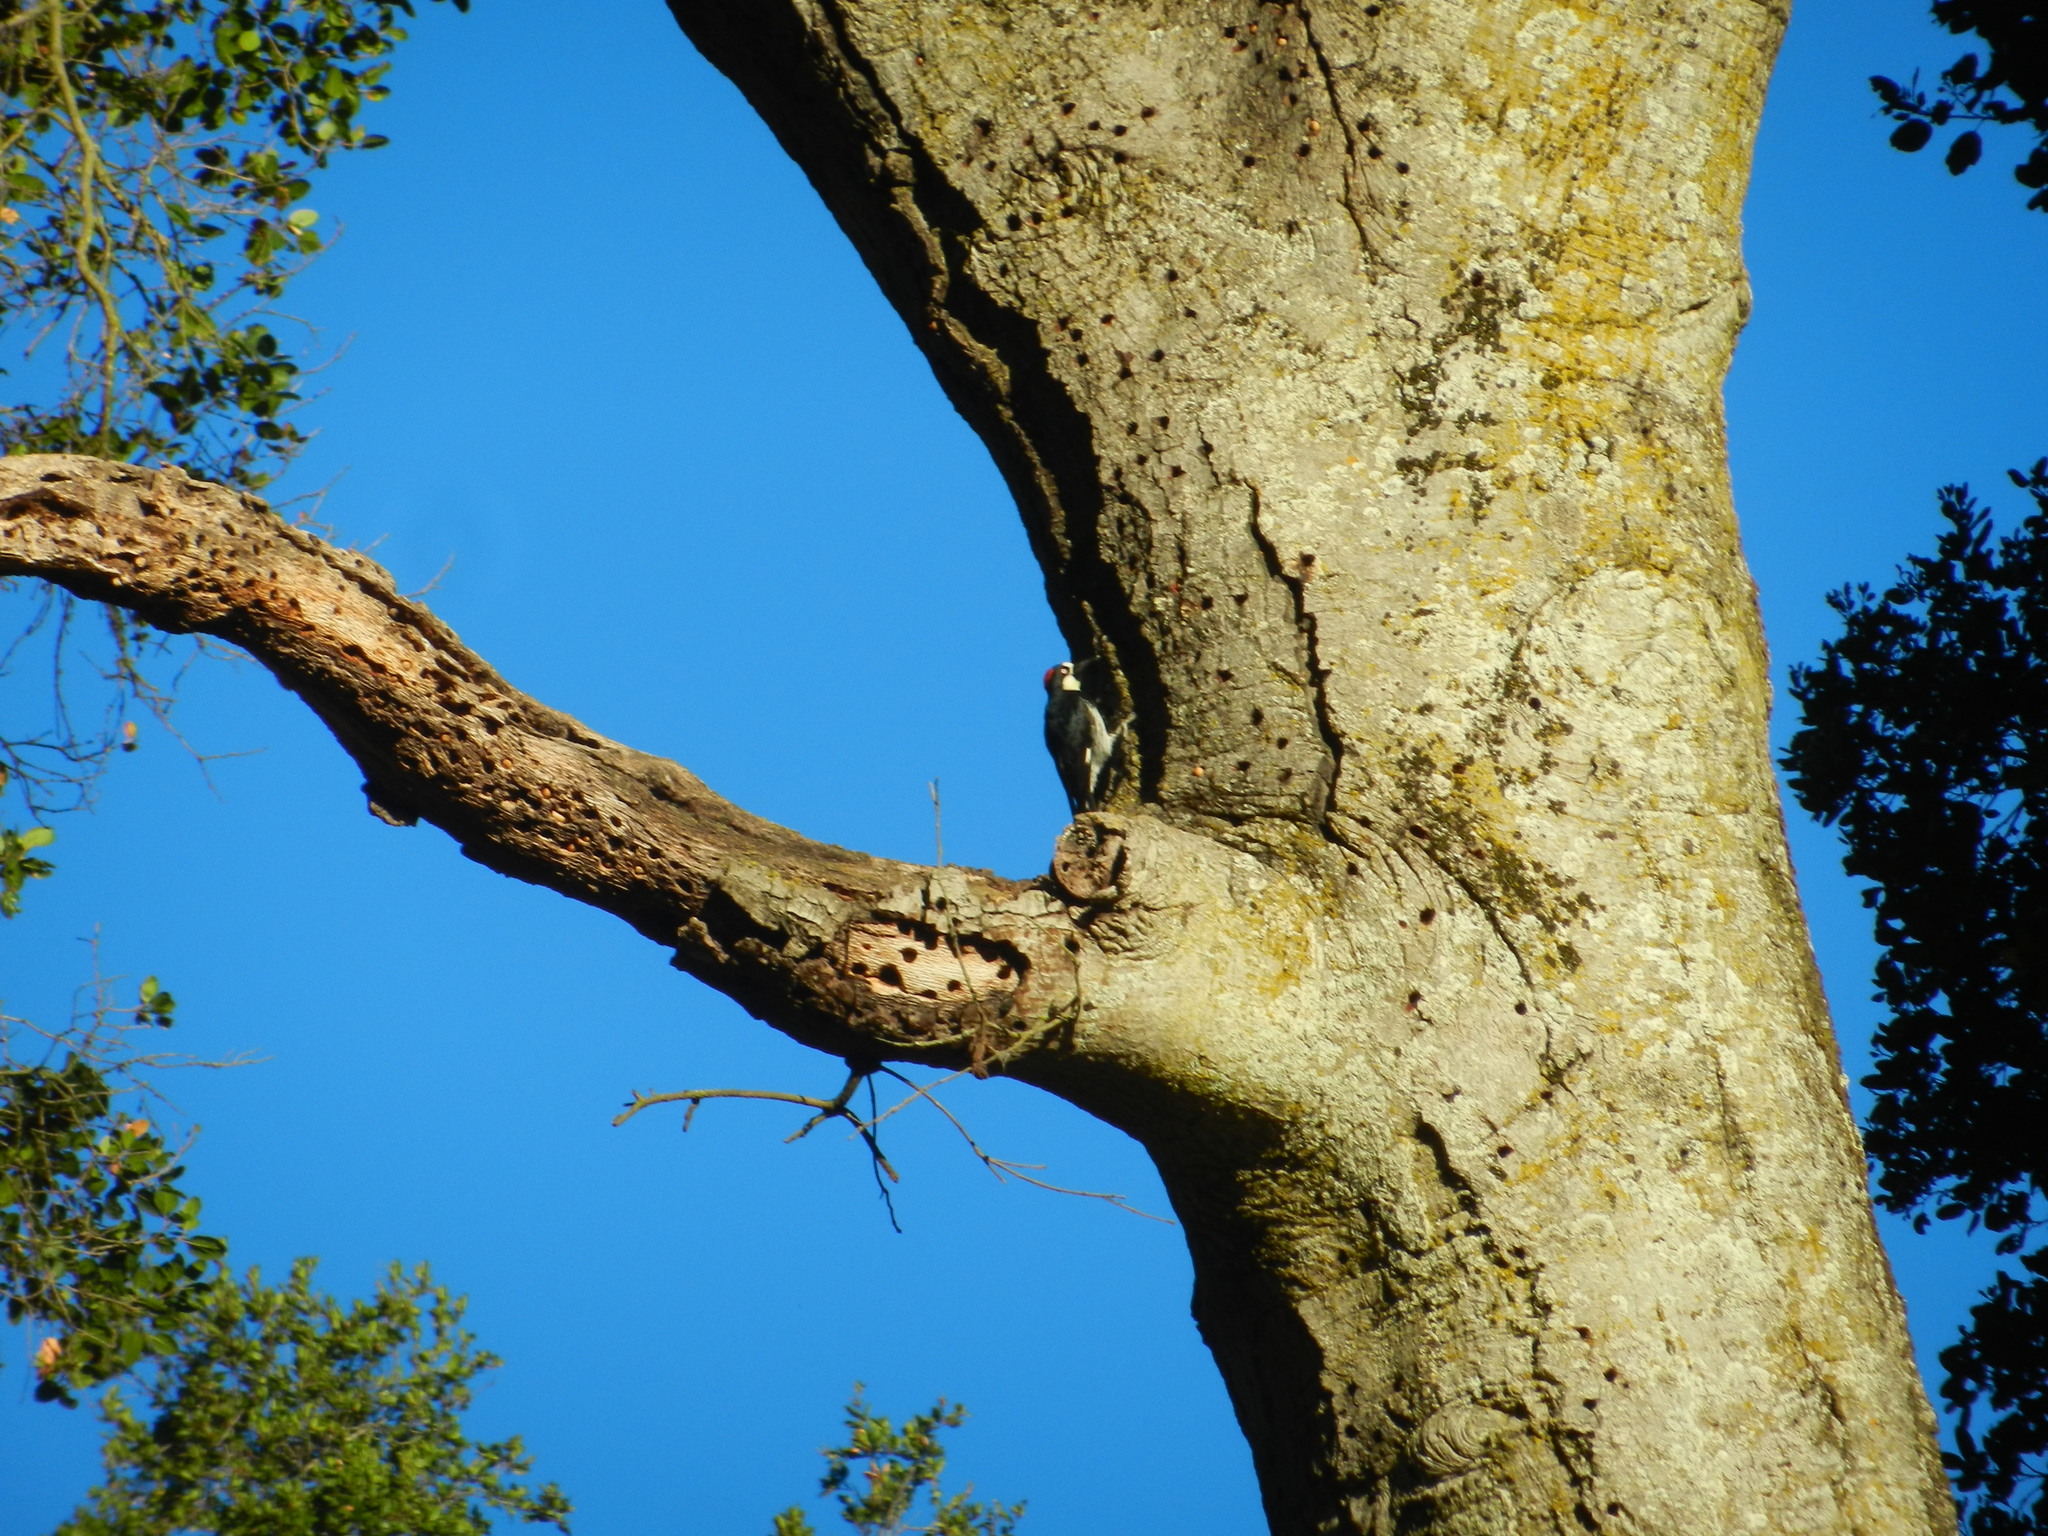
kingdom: Animalia
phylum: Chordata
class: Aves
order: Piciformes
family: Picidae
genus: Melanerpes
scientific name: Melanerpes formicivorus
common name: Acorn woodpecker
